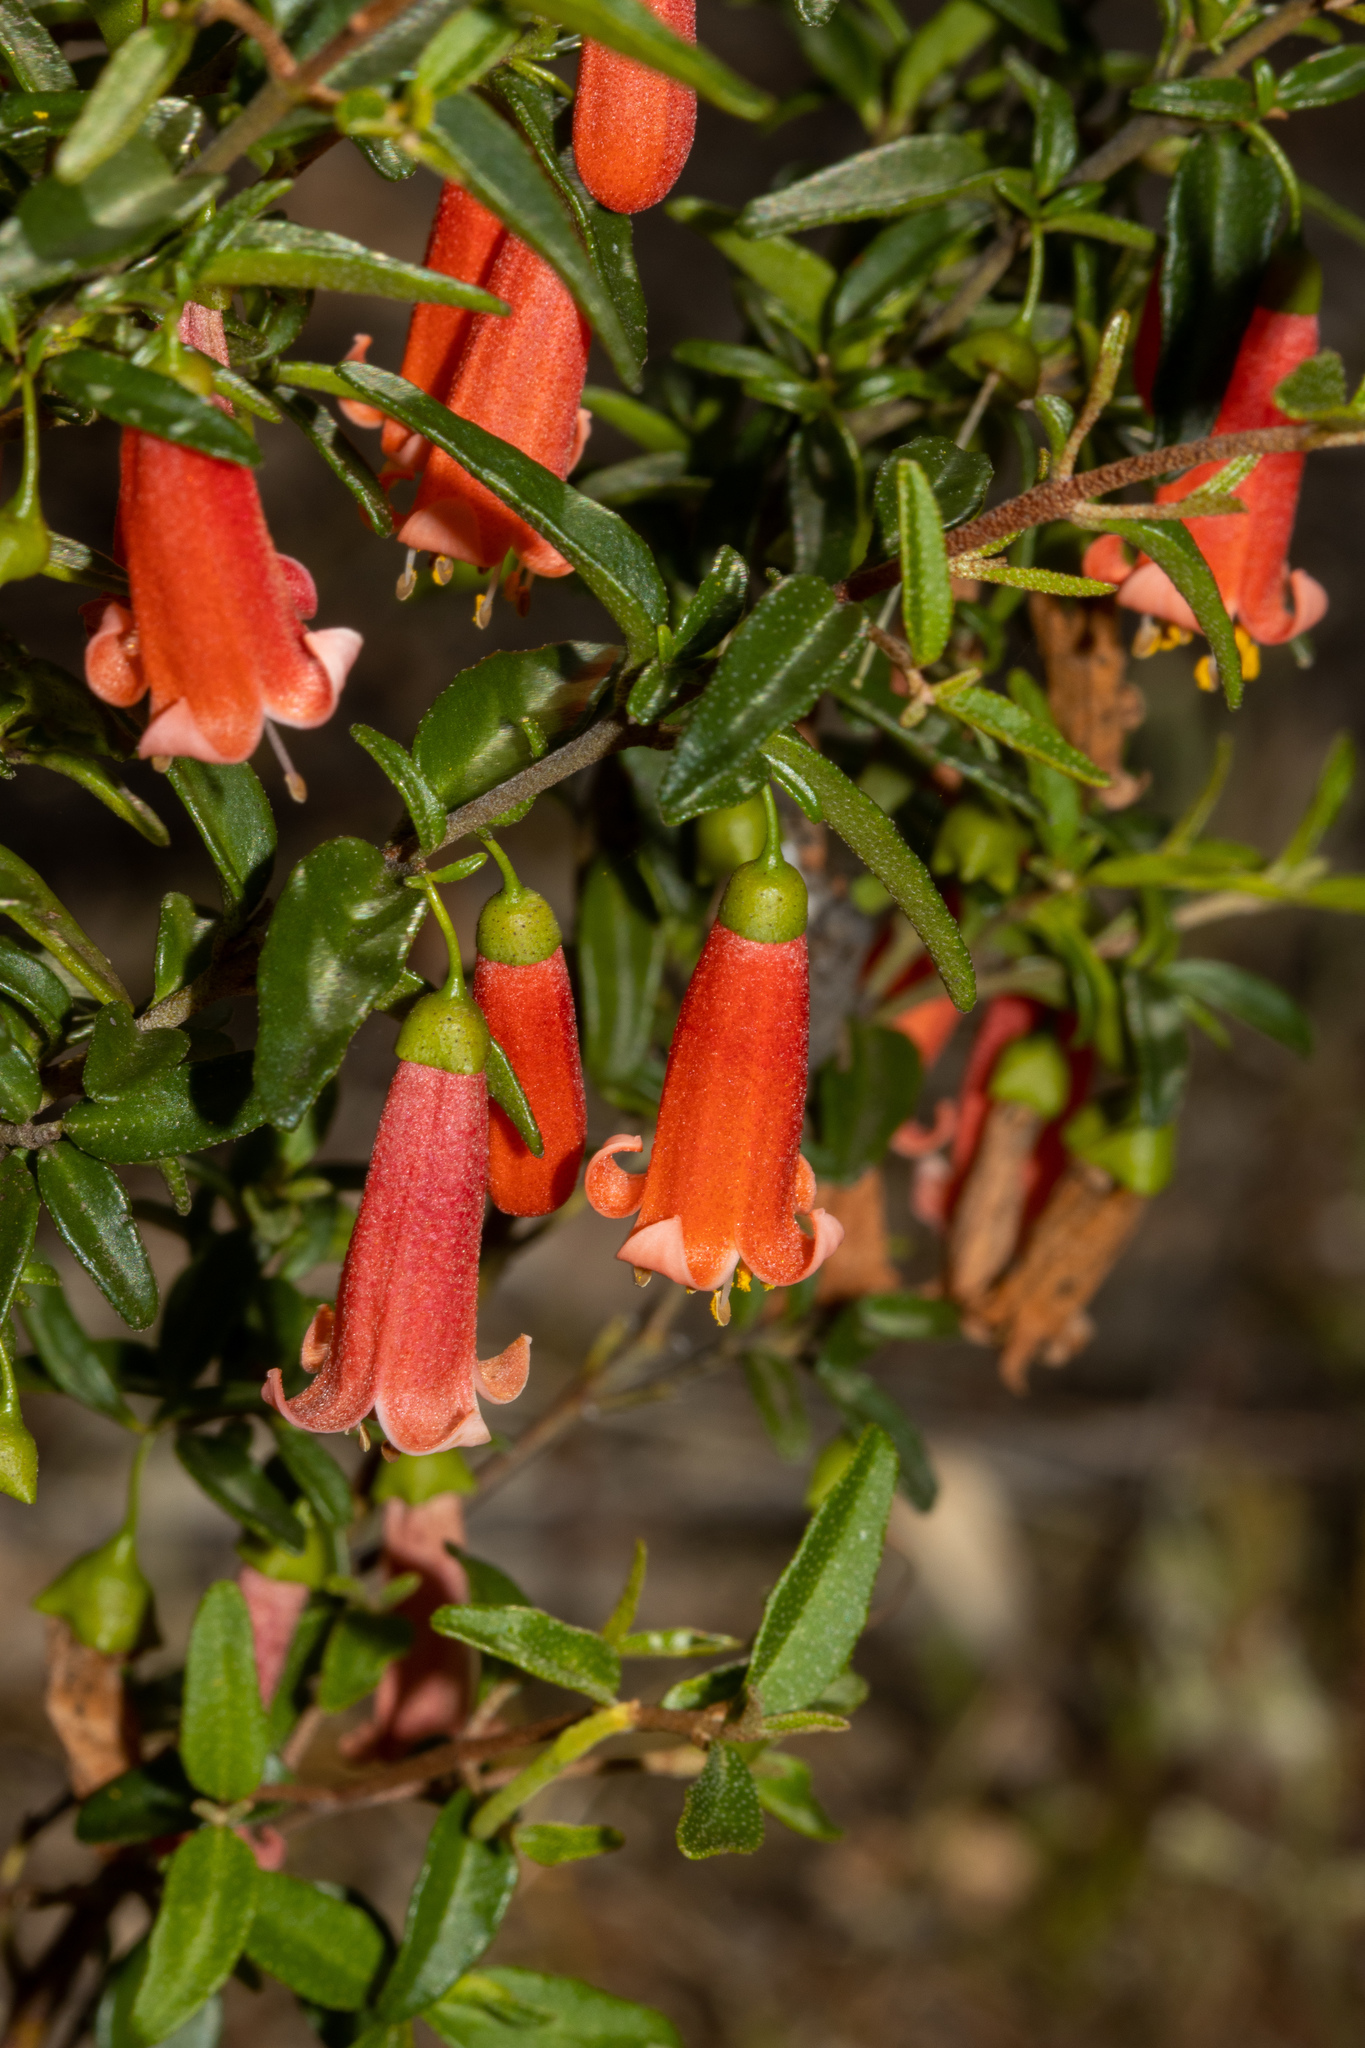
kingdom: Plantae
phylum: Tracheophyta
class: Magnoliopsida
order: Sapindales
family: Rutaceae
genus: Correa
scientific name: Correa pulchella
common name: Salmon correa
